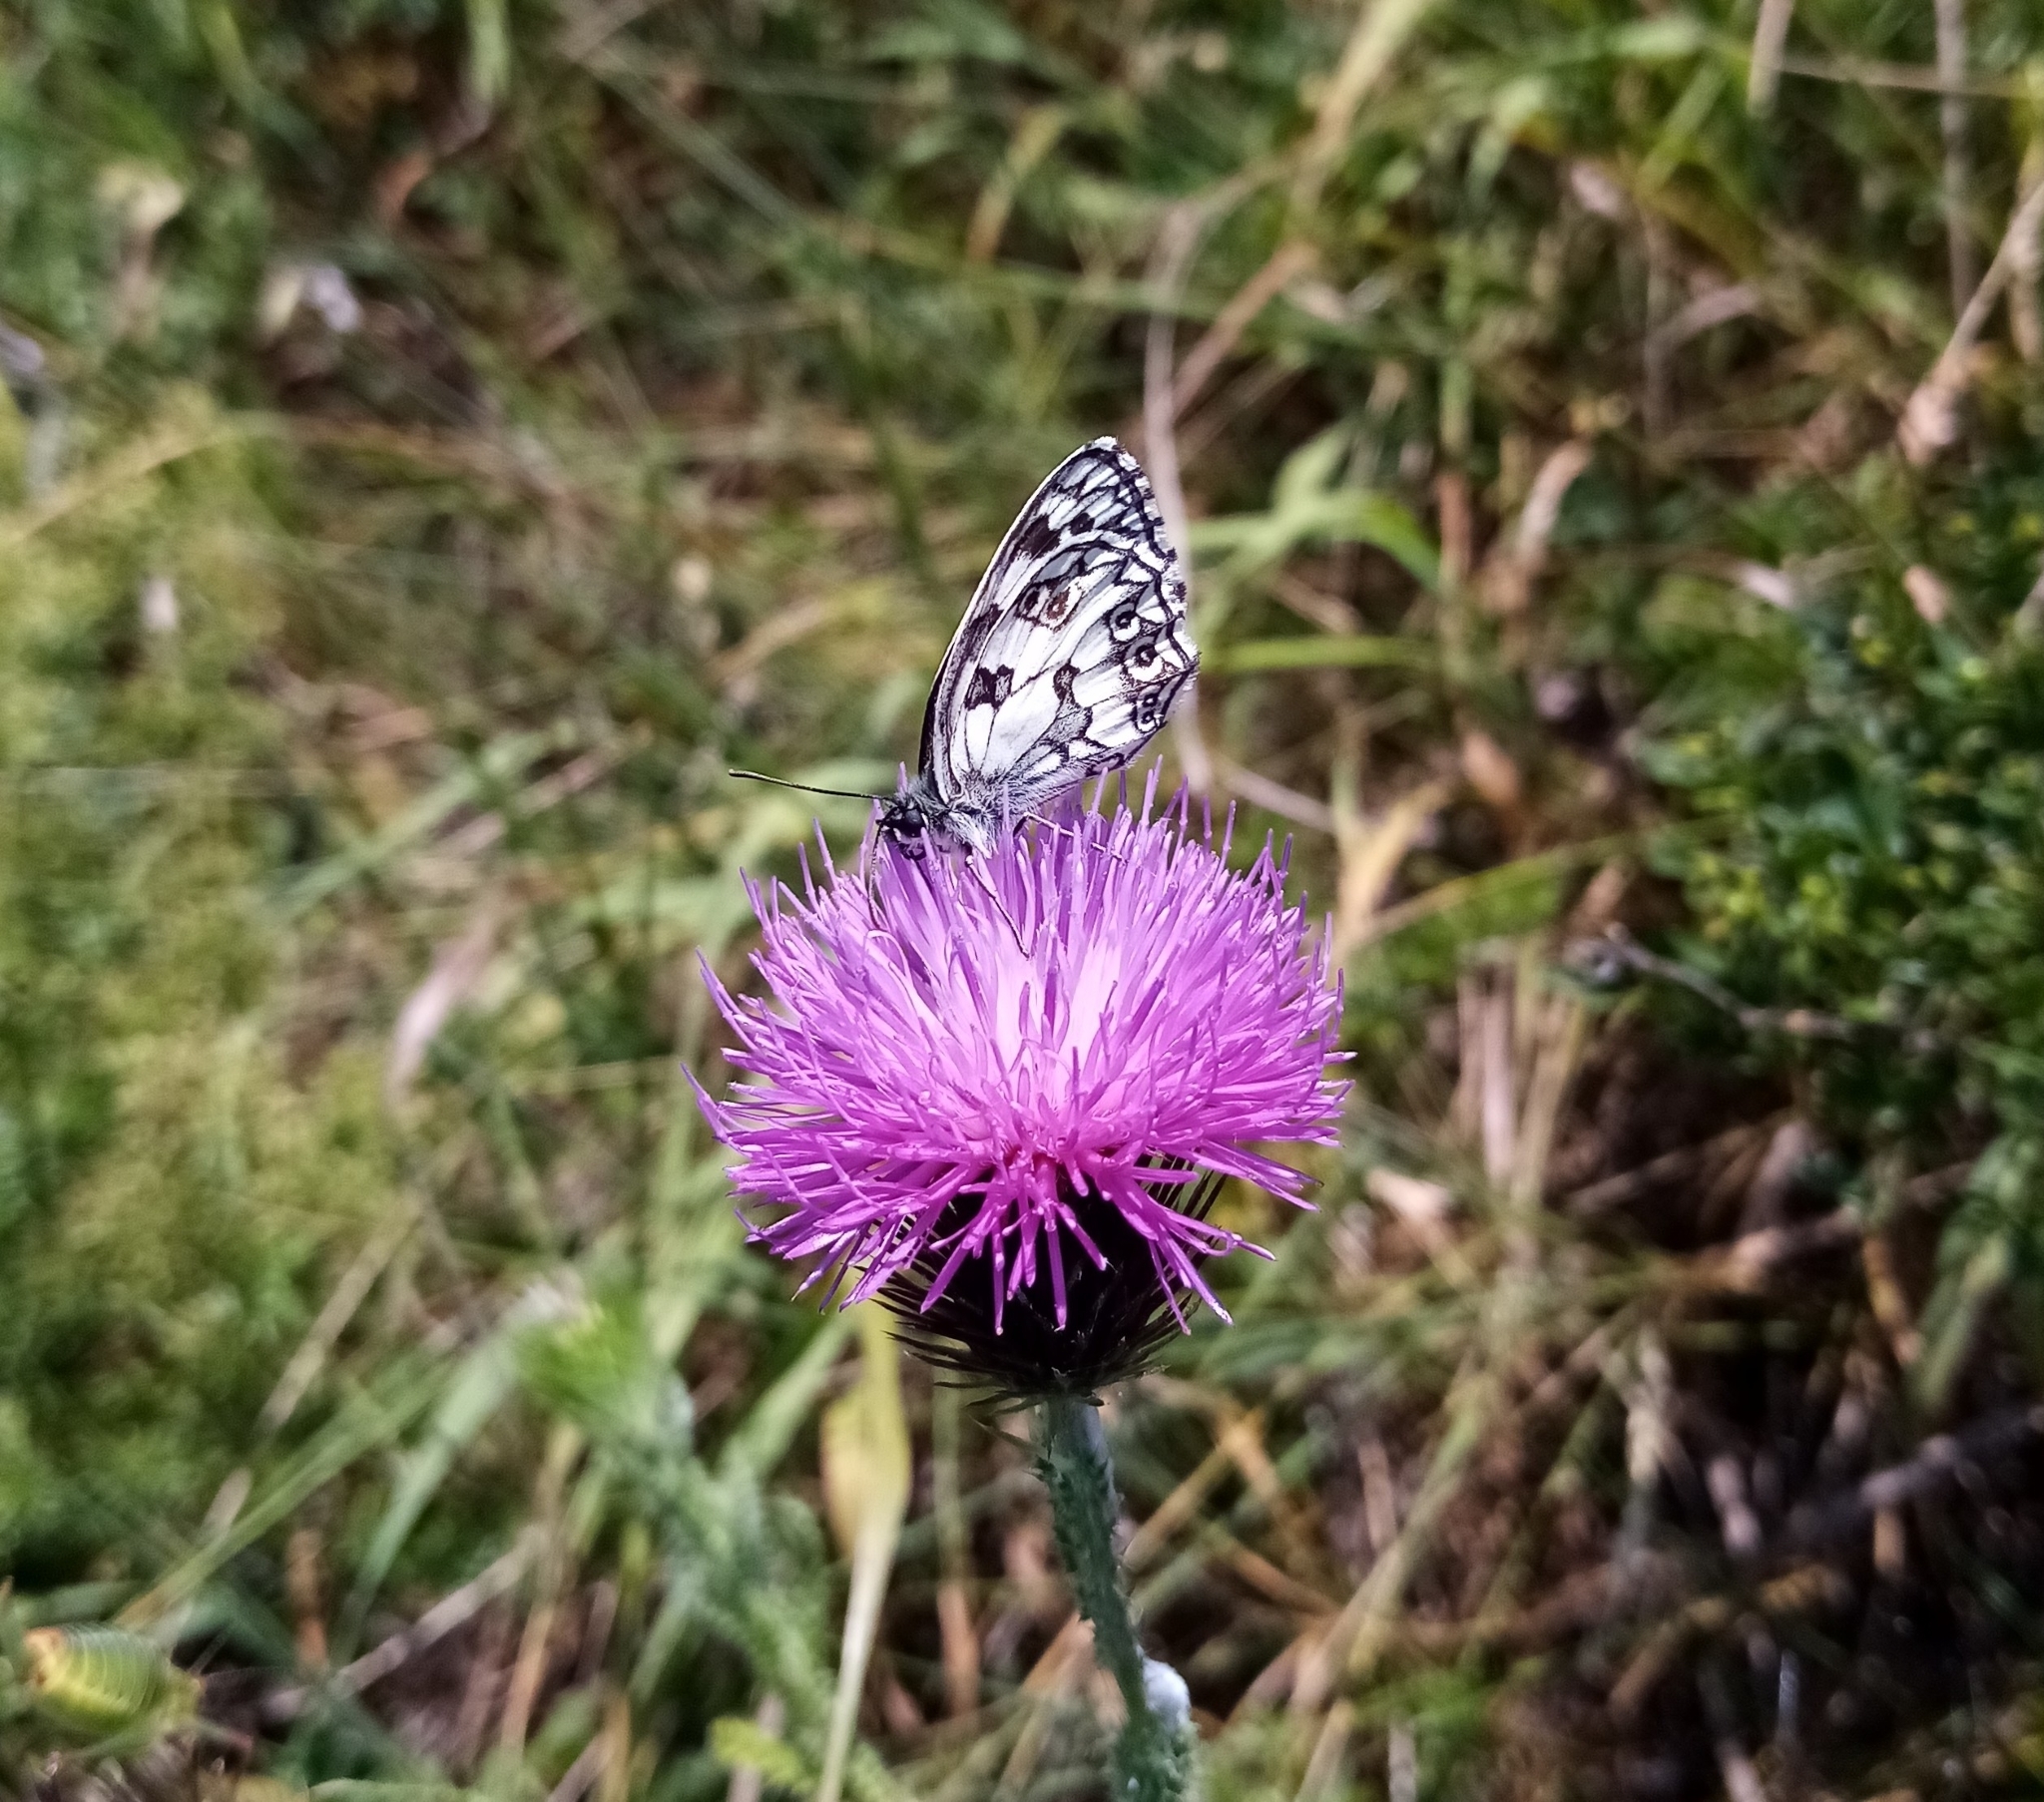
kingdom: Animalia
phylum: Arthropoda
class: Insecta
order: Lepidoptera
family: Nymphalidae
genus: Melanargia
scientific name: Melanargia galathea
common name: Marbled white
